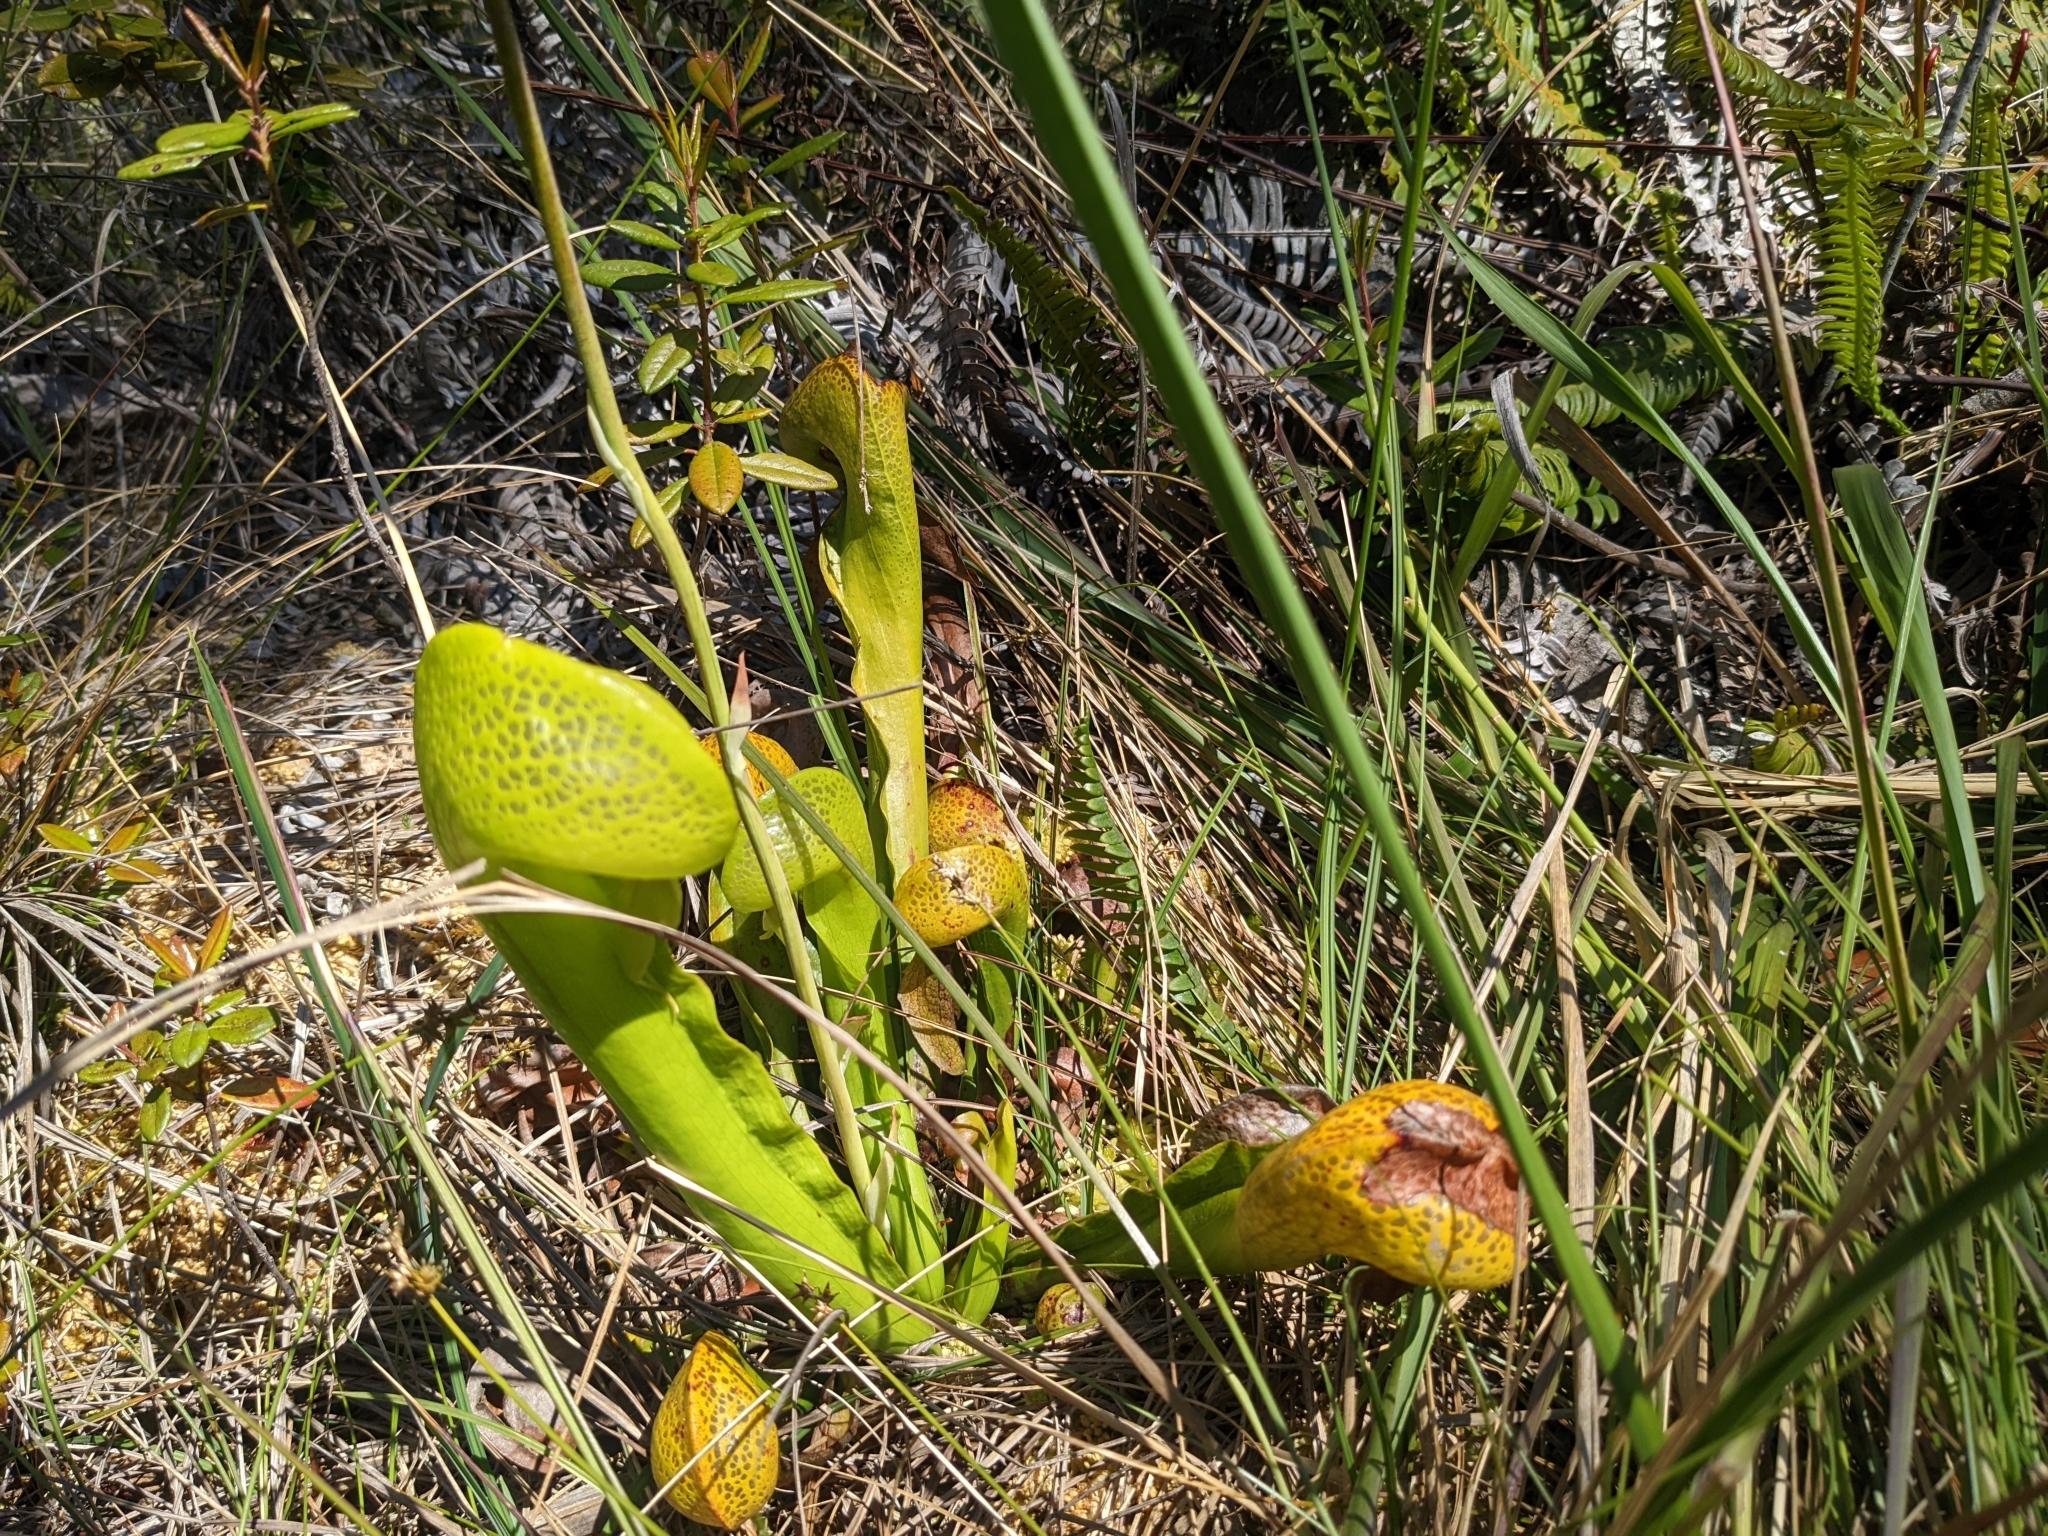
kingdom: Plantae
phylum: Tracheophyta
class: Magnoliopsida
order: Ericales
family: Sarraceniaceae
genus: Darlingtonia
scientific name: Darlingtonia californica
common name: California pitcher plant
